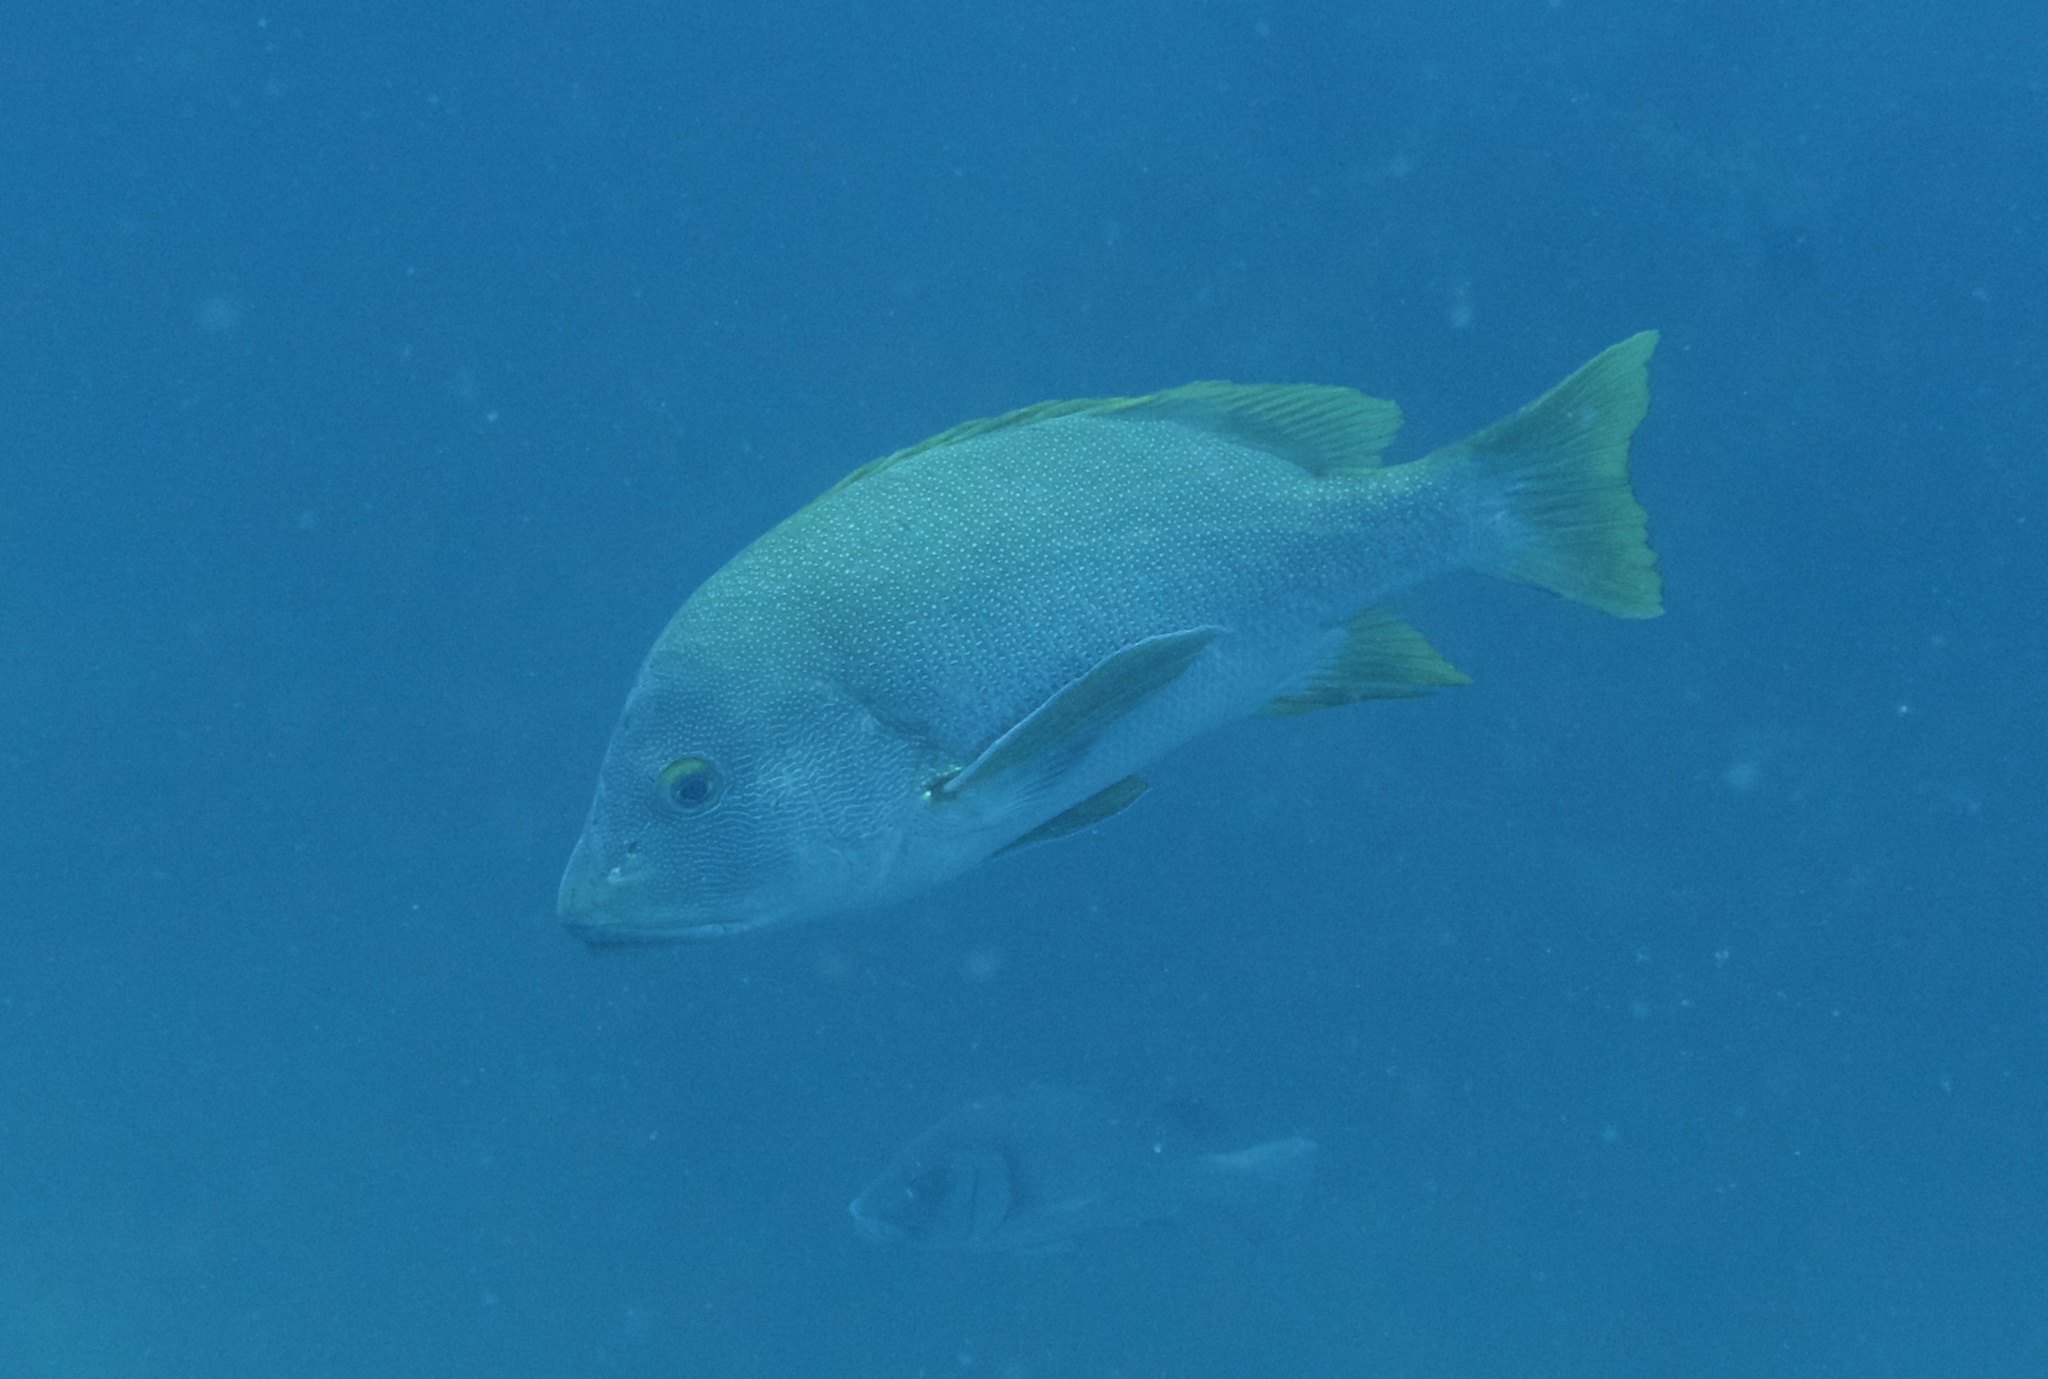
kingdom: Animalia
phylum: Chordata
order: Perciformes
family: Lutjanidae
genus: Lutjanus
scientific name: Lutjanus rivulatus
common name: Blubberlip snapper
